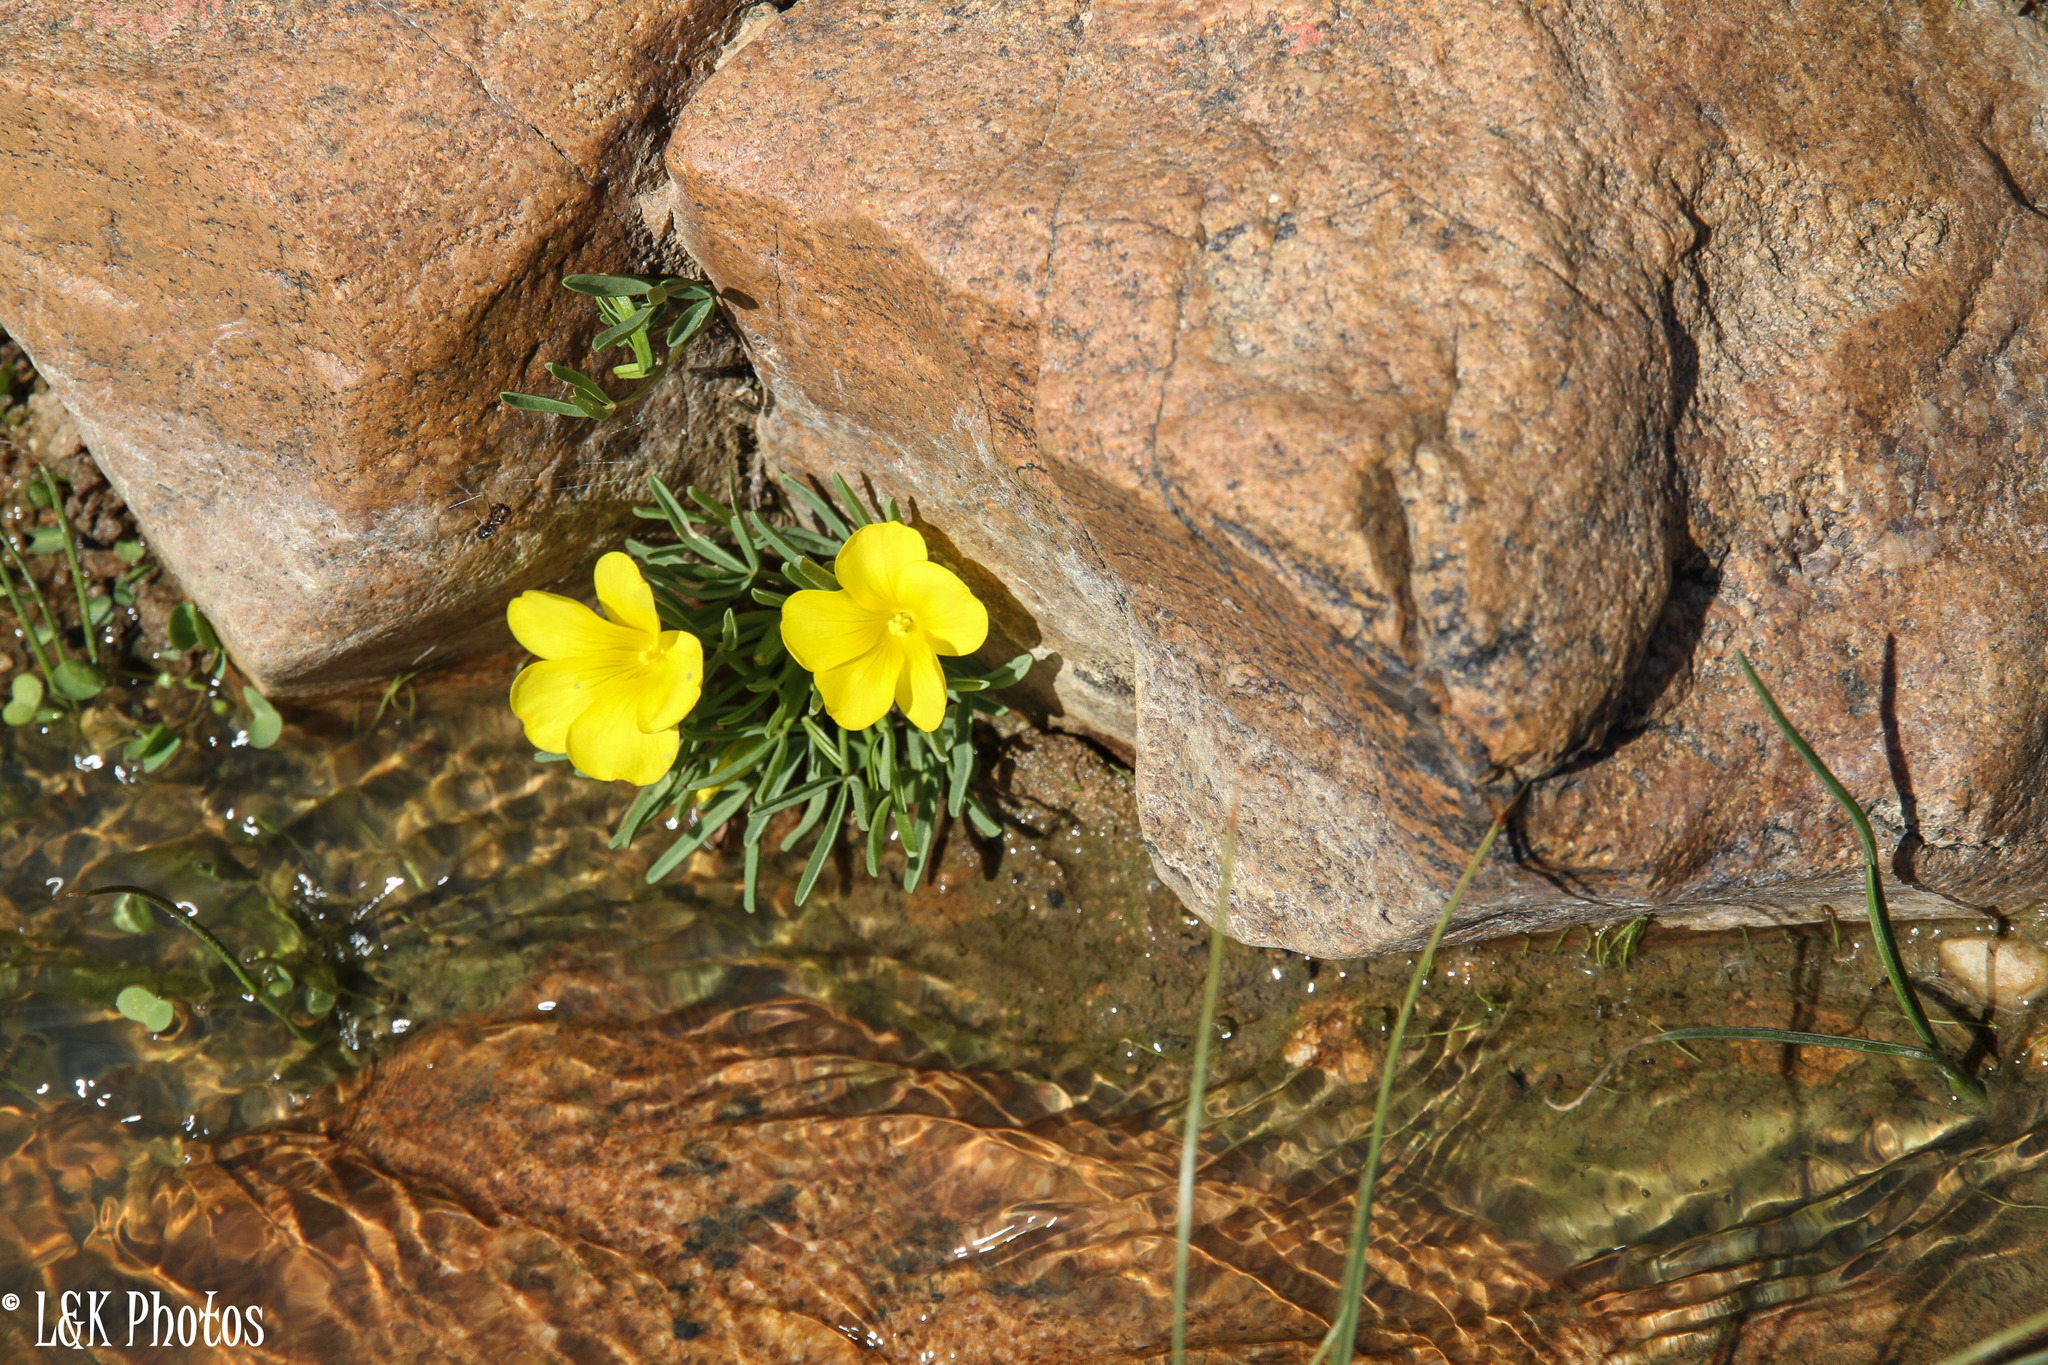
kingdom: Plantae
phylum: Tracheophyta
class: Magnoliopsida
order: Oxalidales
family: Oxalidaceae
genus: Oxalis
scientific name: Oxalis namaquana
